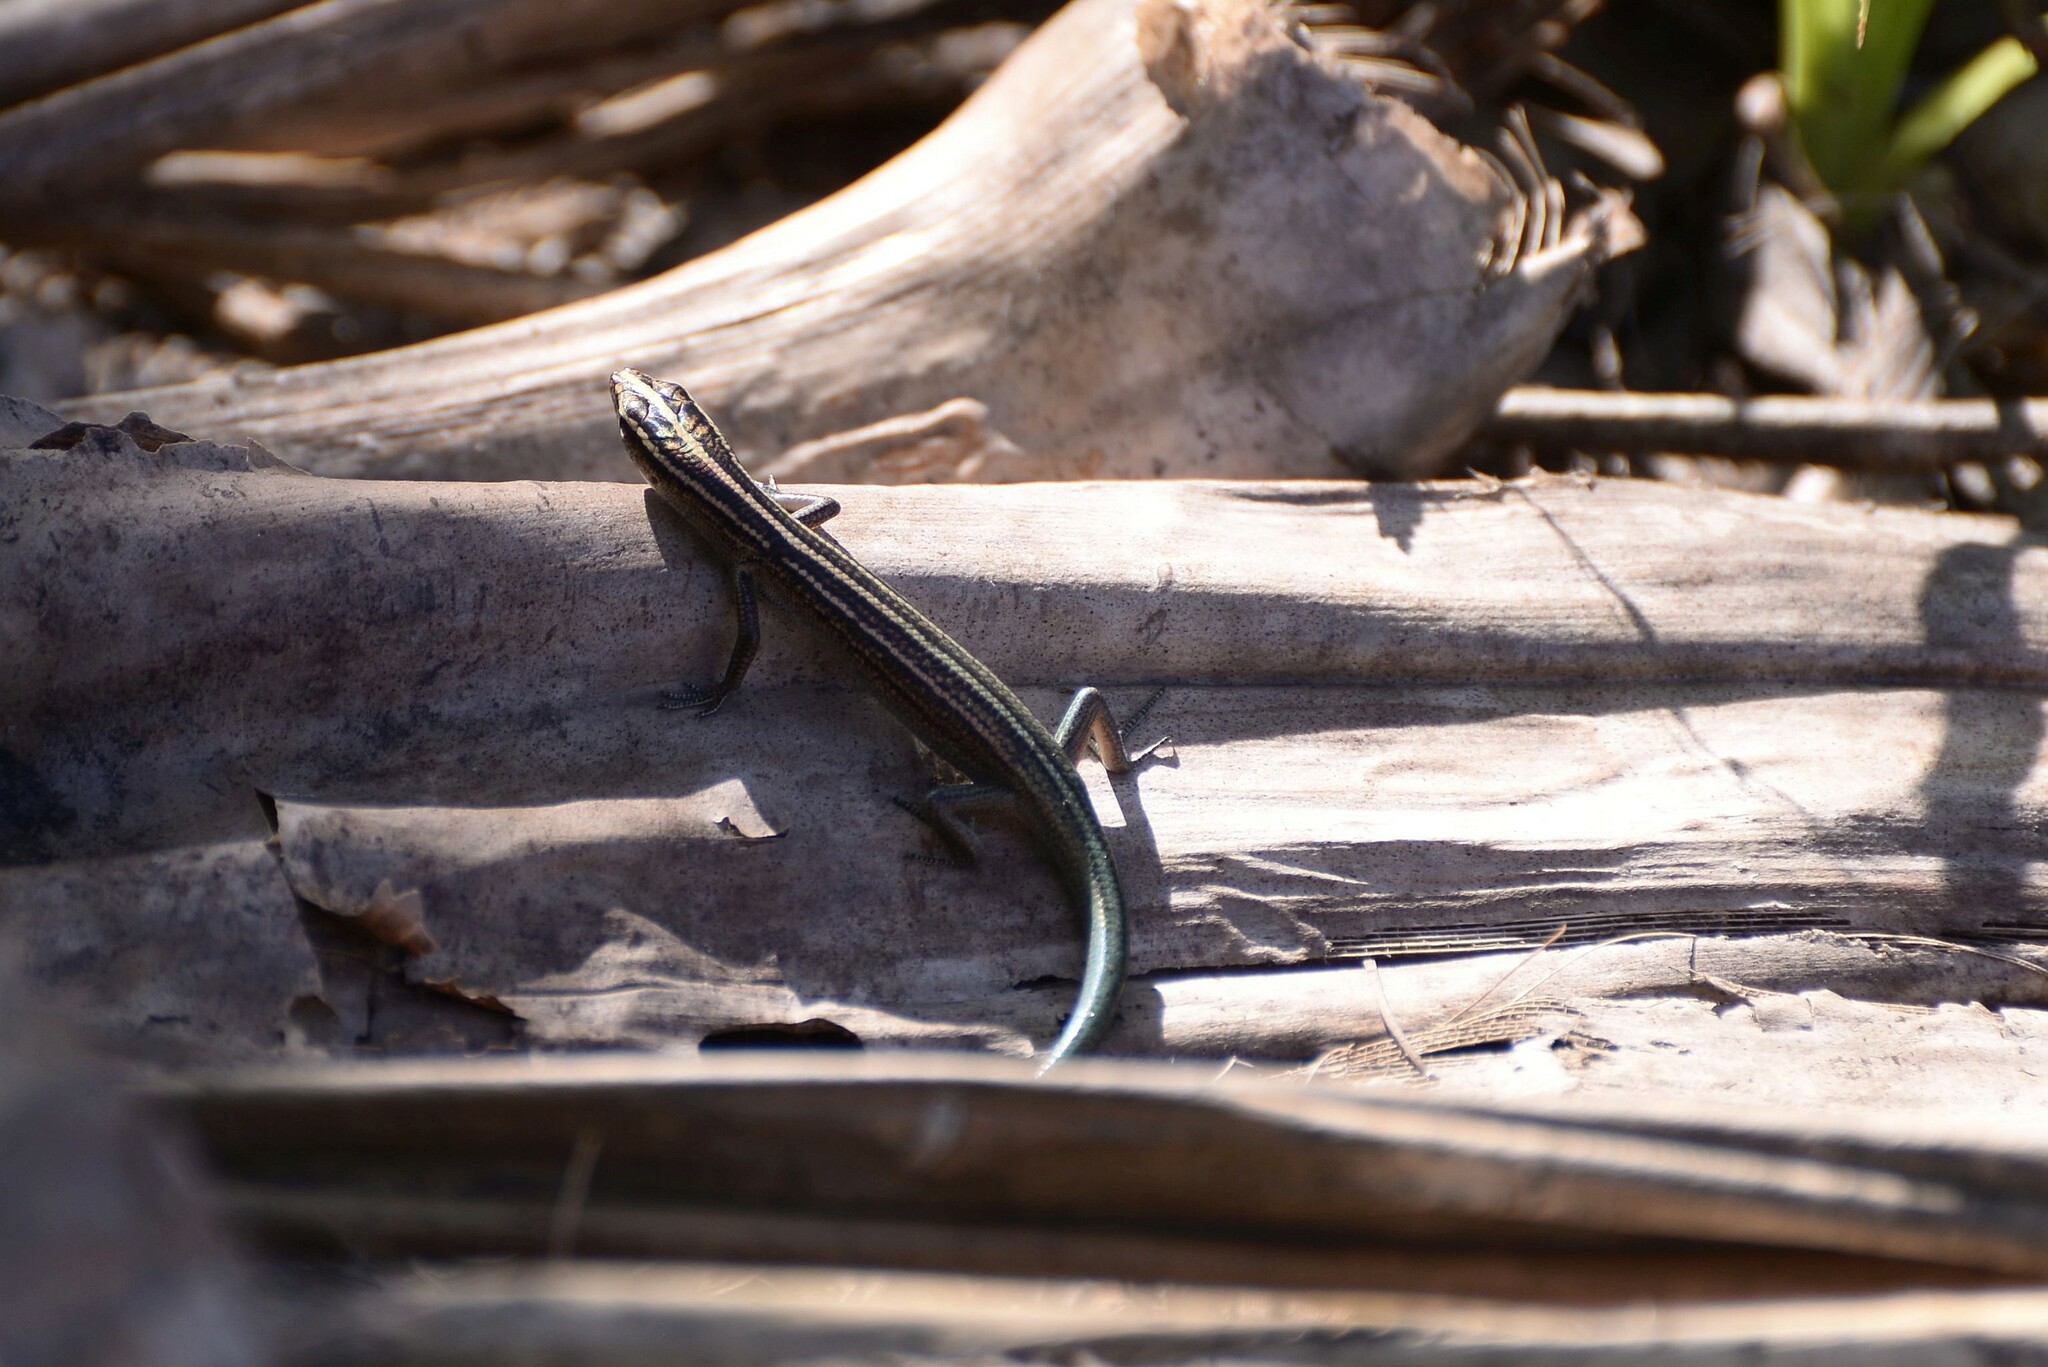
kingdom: Animalia
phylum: Chordata
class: Squamata
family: Scincidae
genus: Emoia
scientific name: Emoia cyanura
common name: Copper-tailed skink
